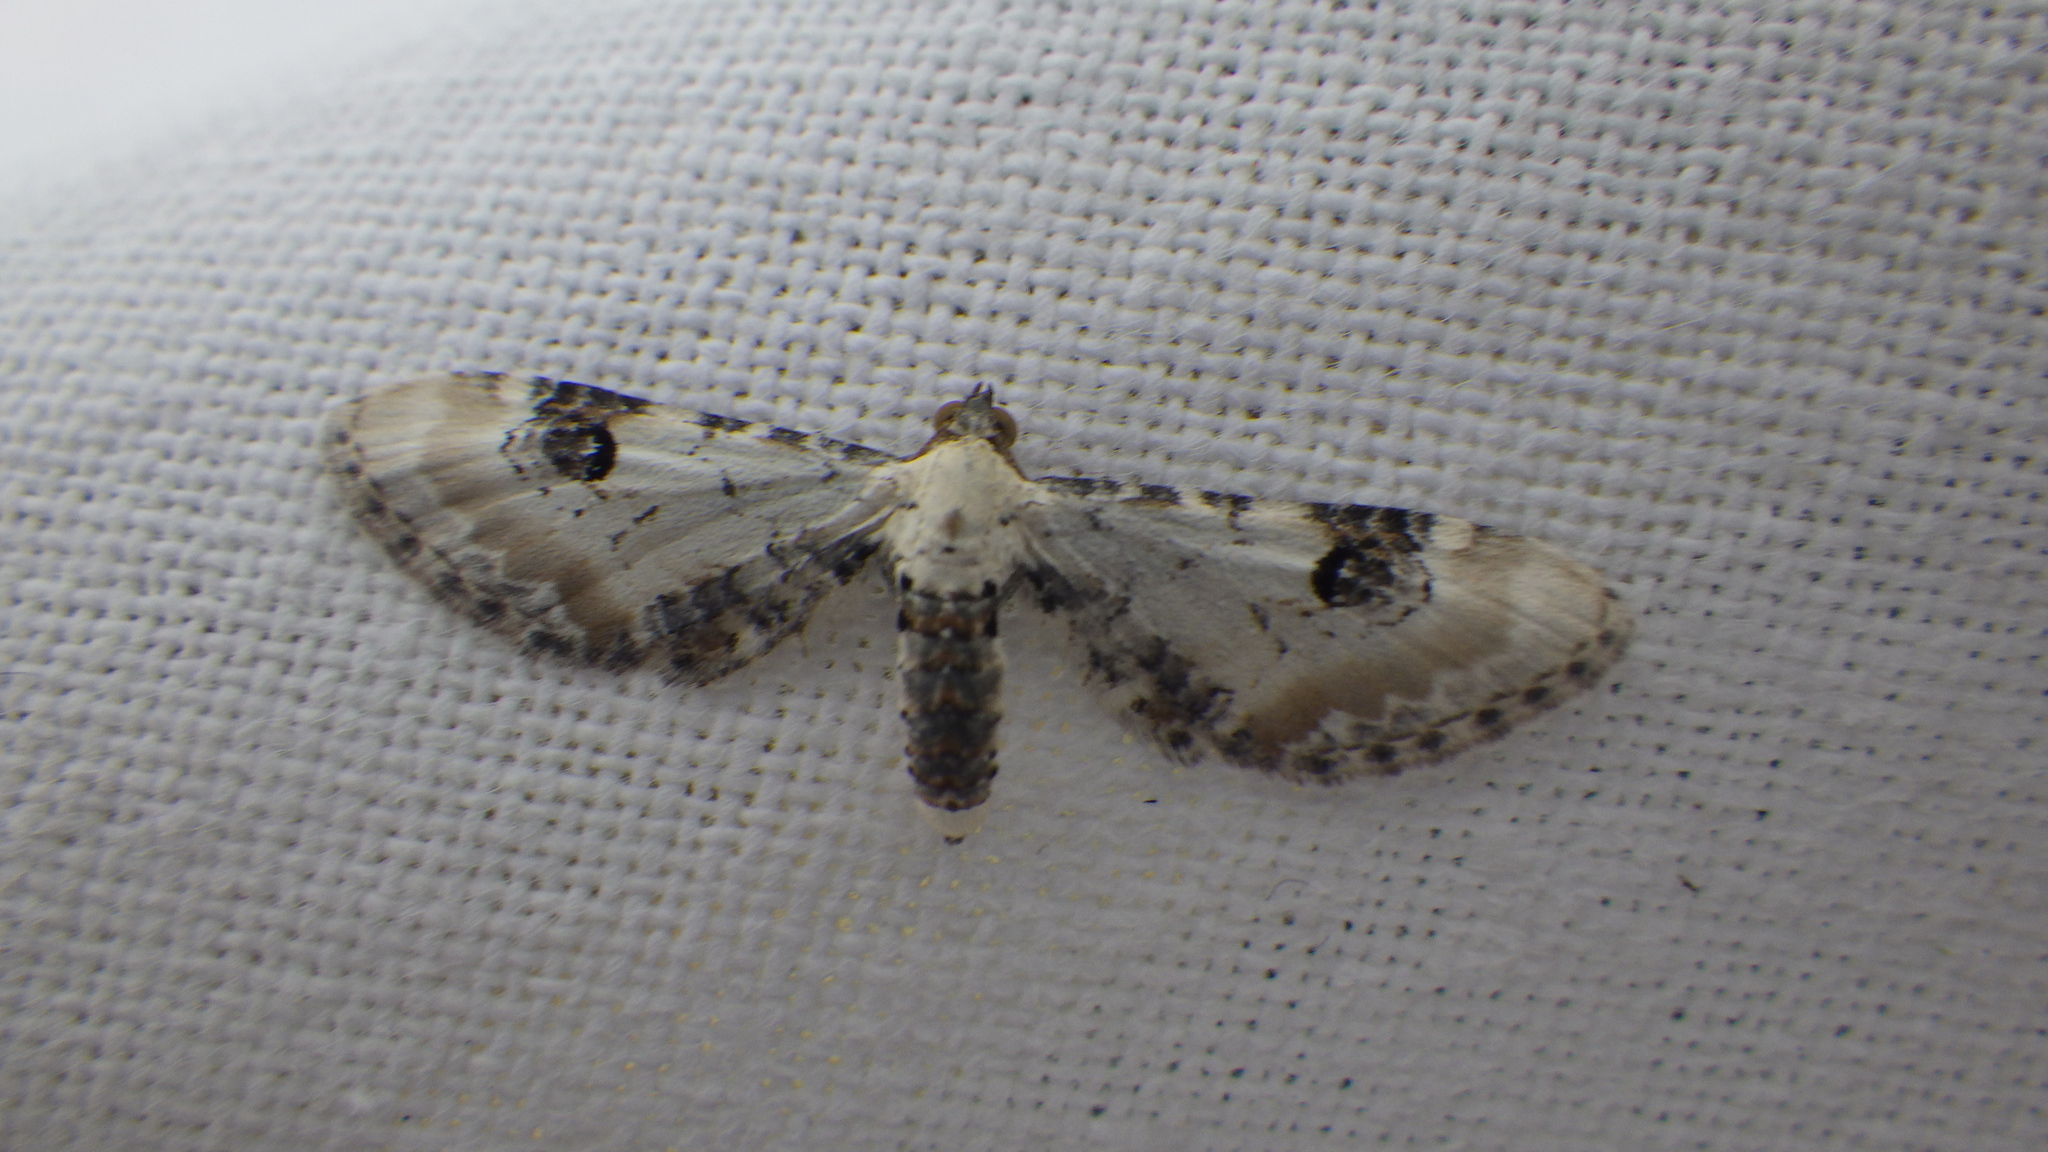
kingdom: Animalia
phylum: Arthropoda
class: Insecta
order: Lepidoptera
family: Geometridae
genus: Eupithecia
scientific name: Eupithecia centaureata
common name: Lime-speck pug
